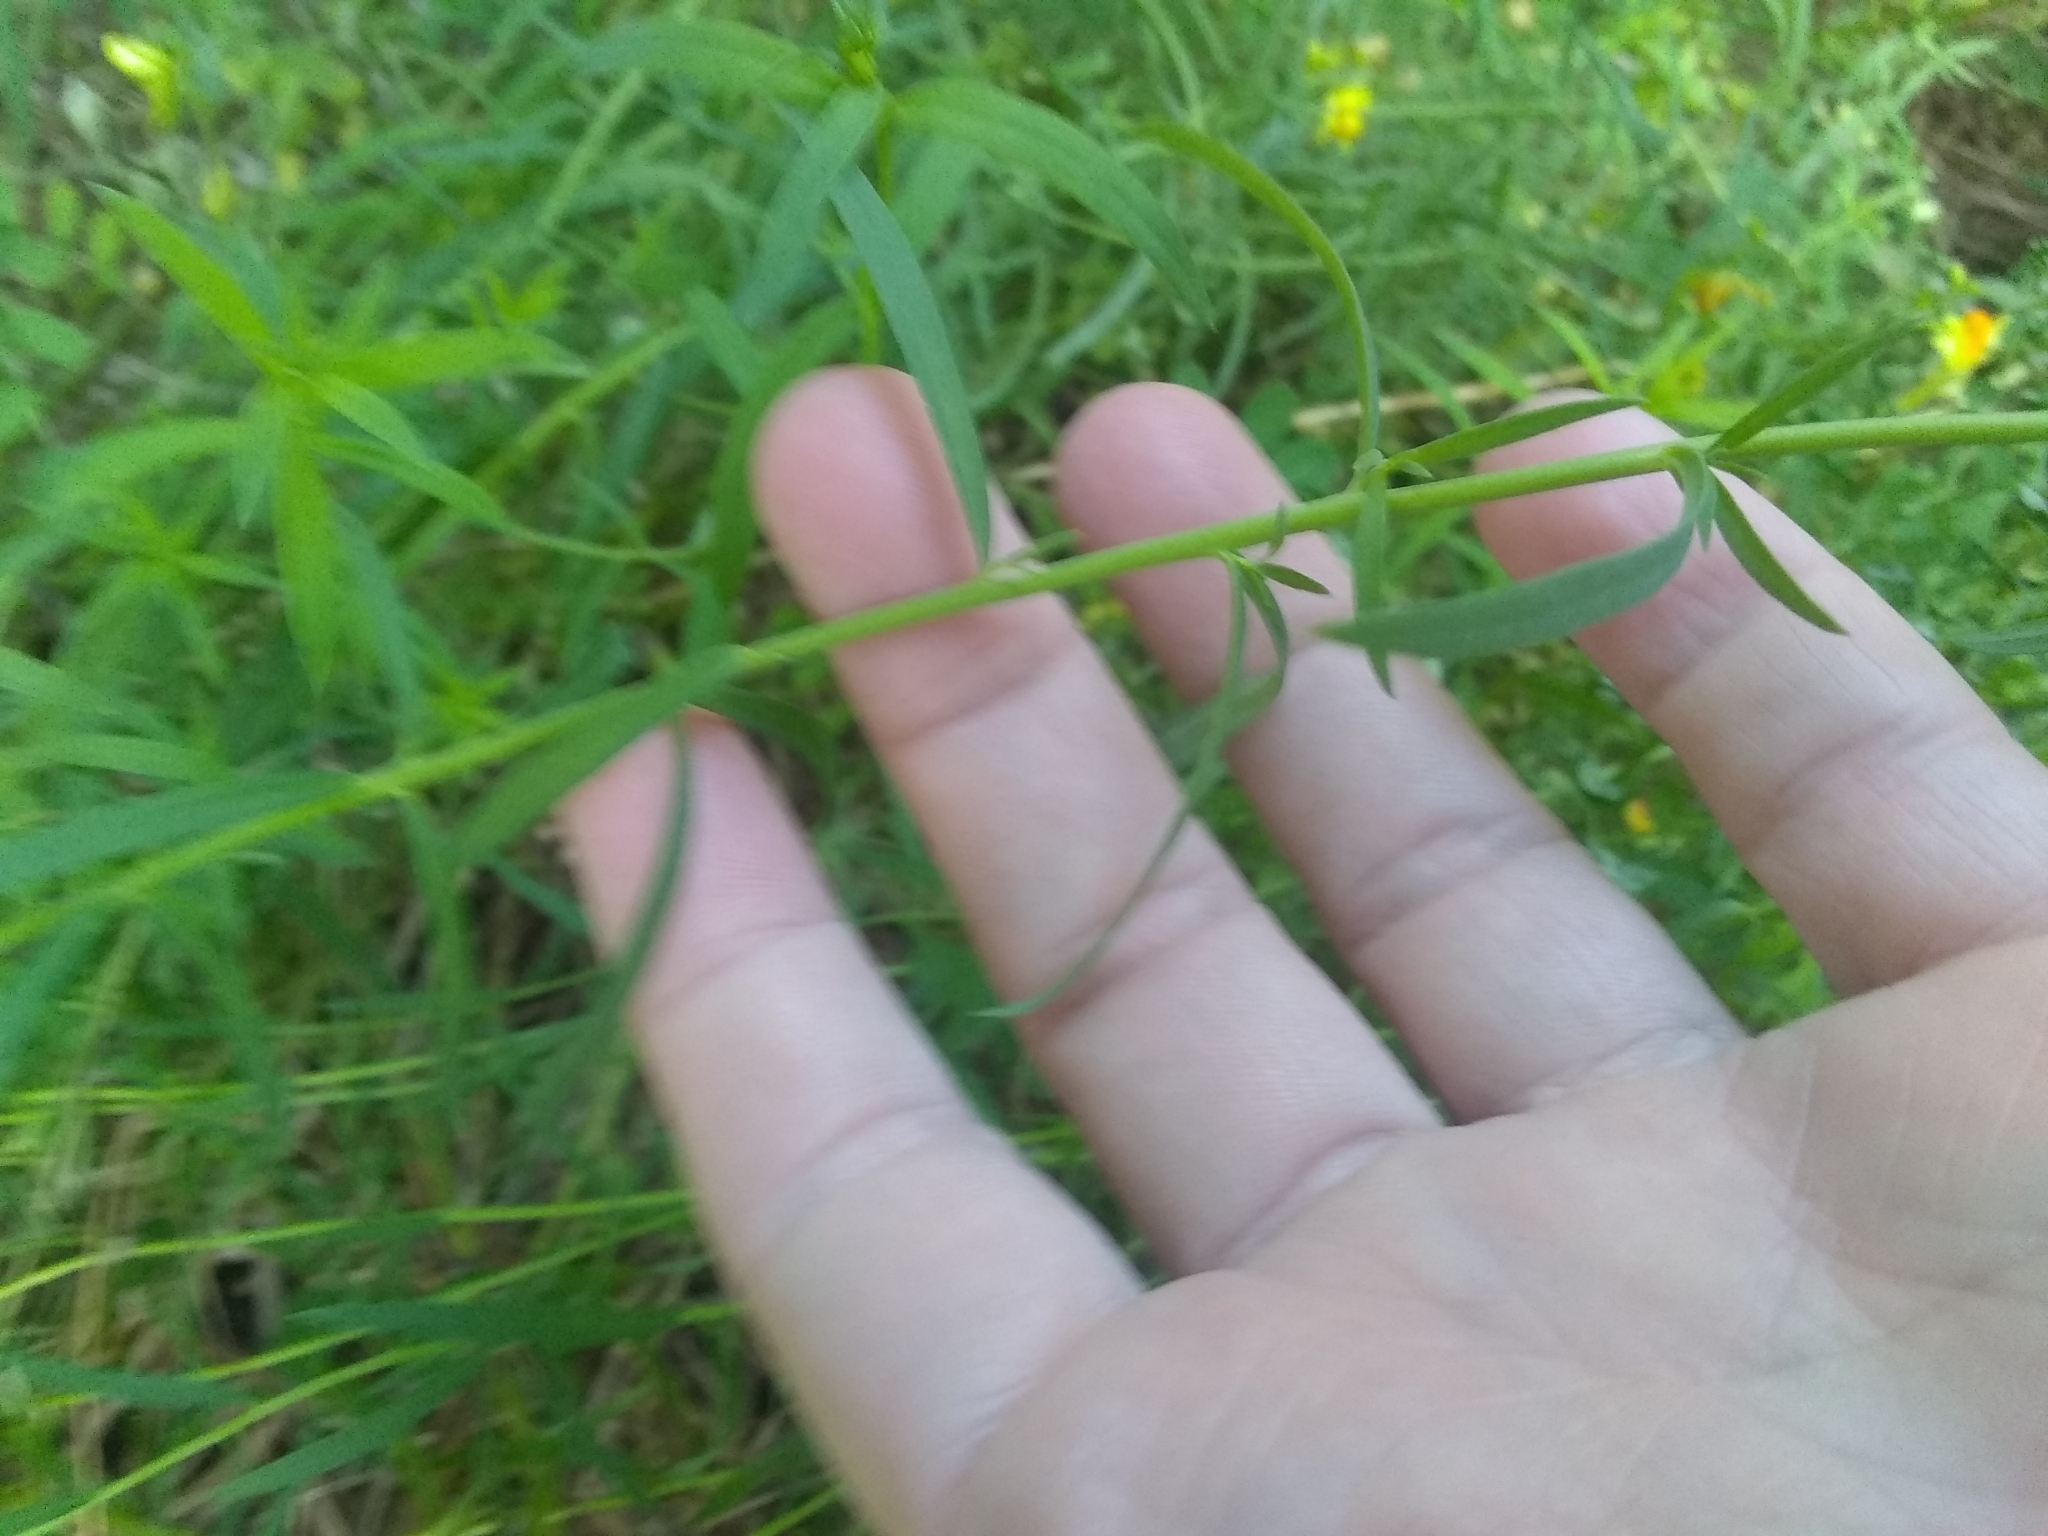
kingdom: Plantae
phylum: Tracheophyta
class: Magnoliopsida
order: Lamiales
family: Plantaginaceae
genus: Linaria
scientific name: Linaria vulgaris
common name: Butter and eggs
